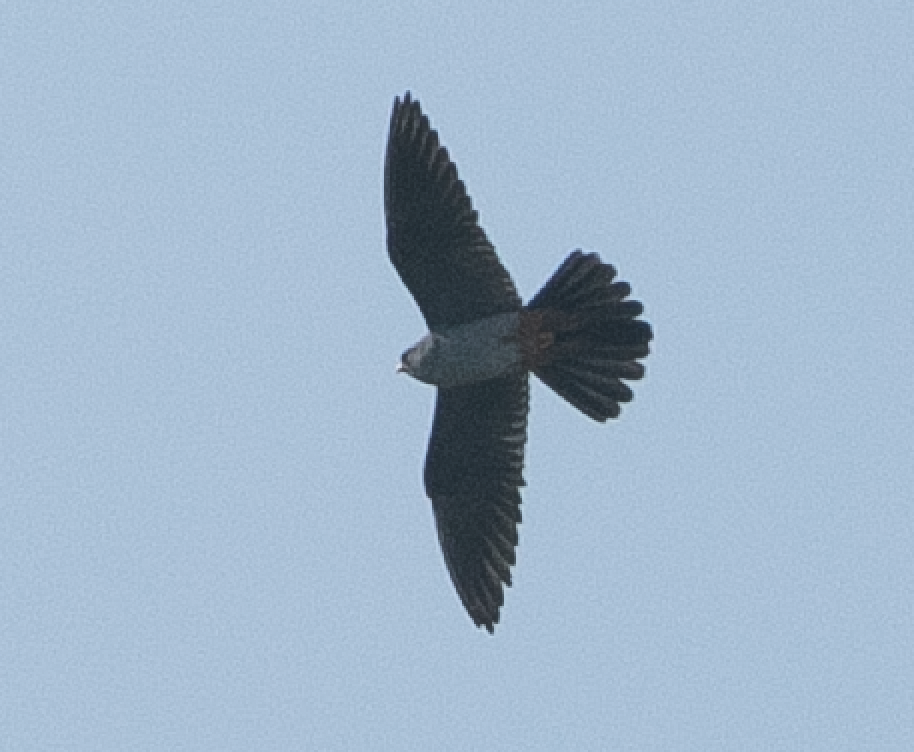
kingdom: Animalia
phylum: Chordata
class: Aves
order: Falconiformes
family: Falconidae
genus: Falco
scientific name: Falco vespertinus
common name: Red-footed falcon
